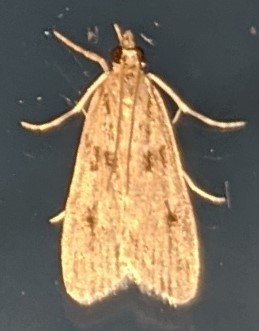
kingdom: Animalia
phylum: Arthropoda
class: Insecta
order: Lepidoptera
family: Crambidae
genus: Scoparia
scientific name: Scoparia biplagialis
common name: Double-striped scoparia moth
